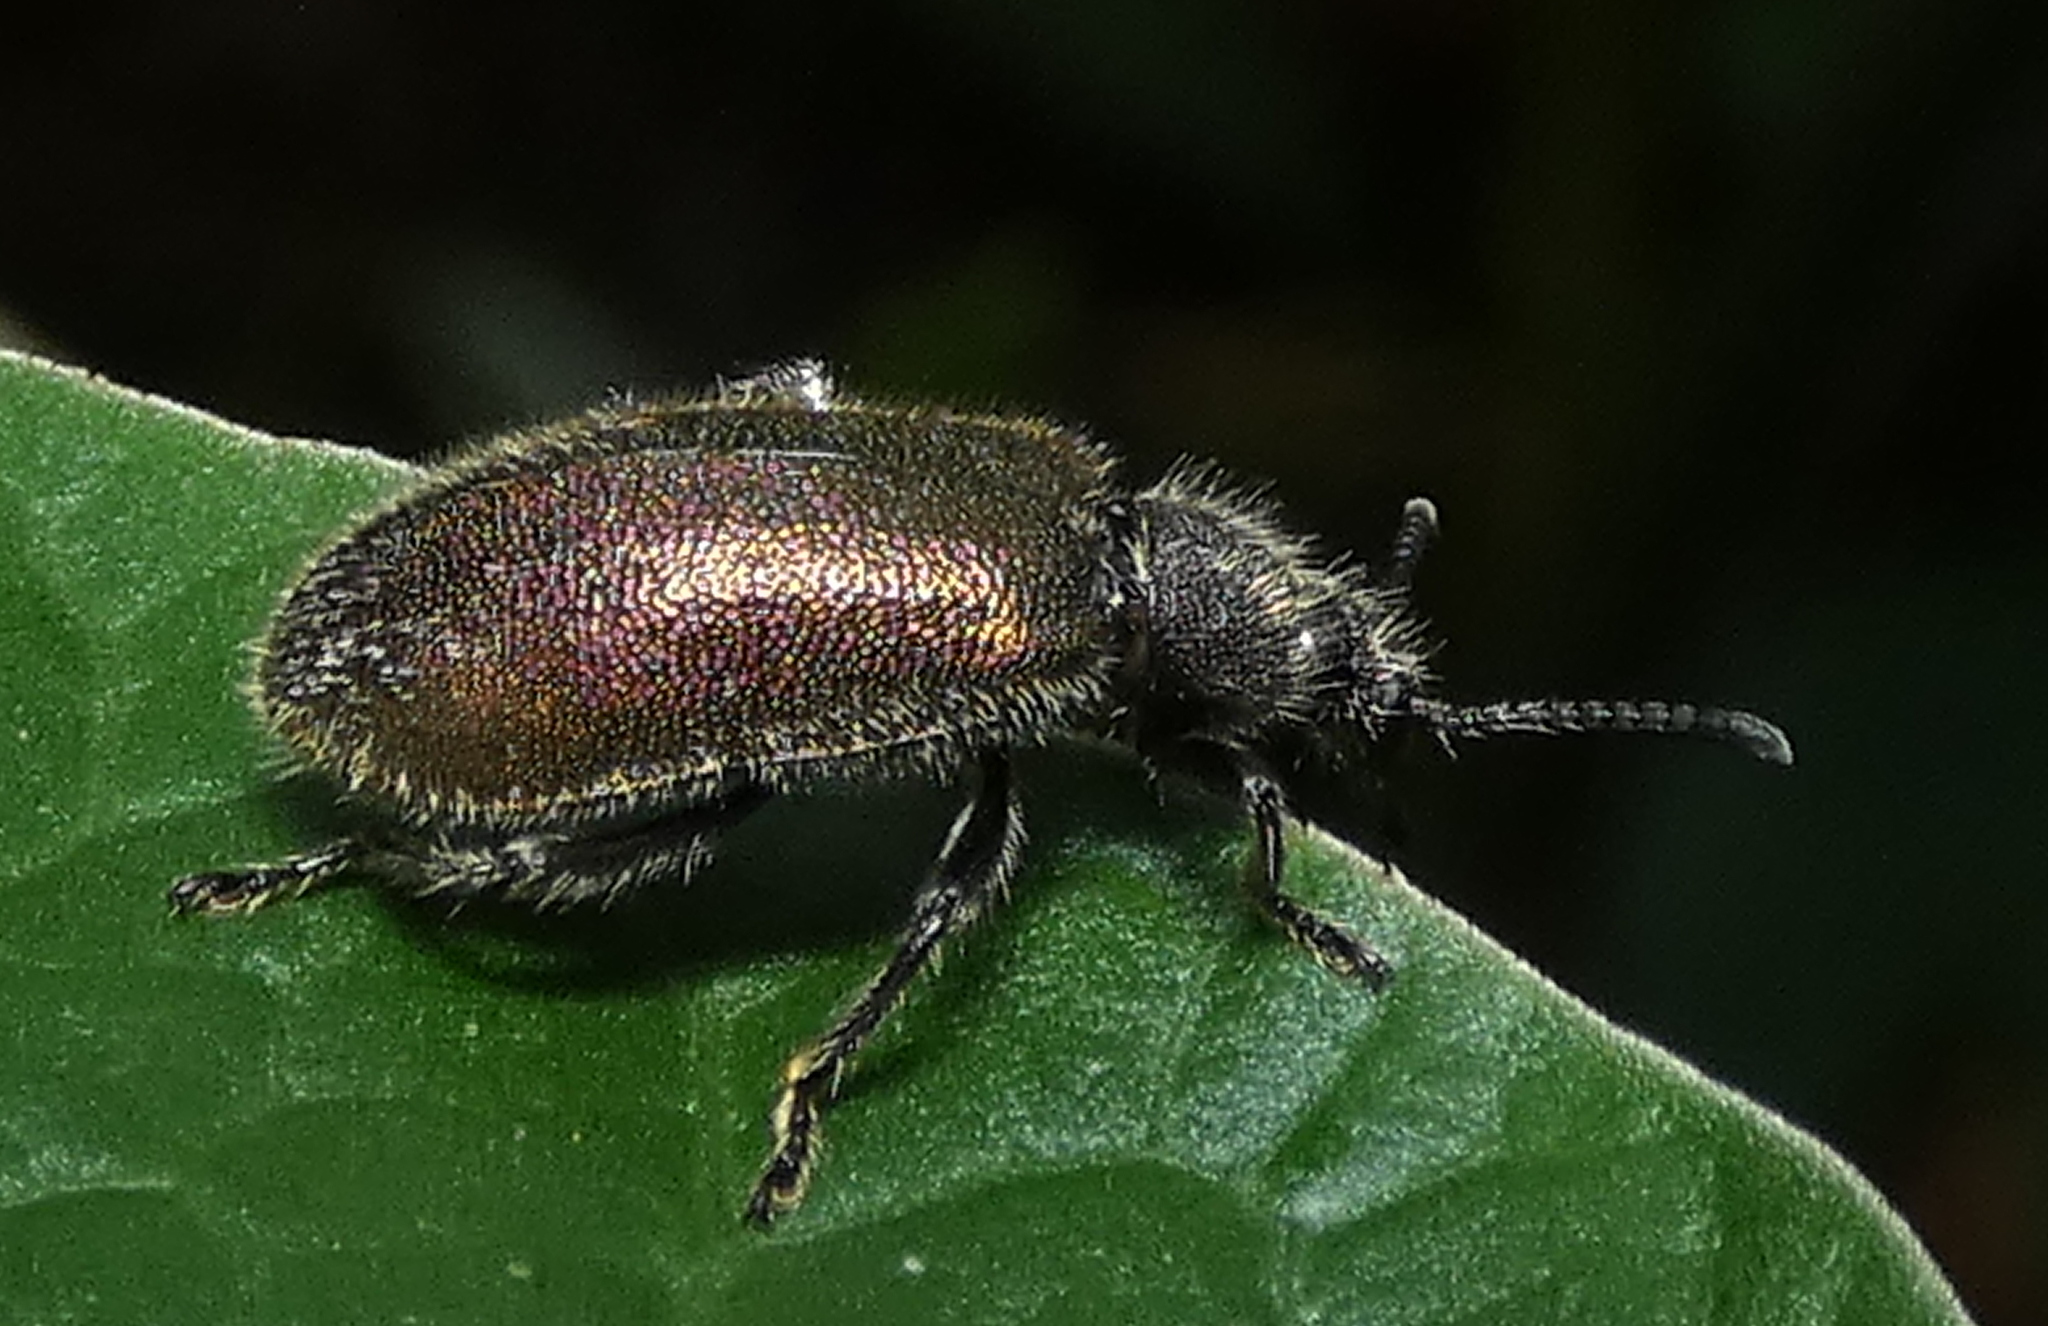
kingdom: Animalia
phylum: Arthropoda
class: Insecta
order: Coleoptera
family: Tenebrionidae
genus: Lagria
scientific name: Lagria villosa
